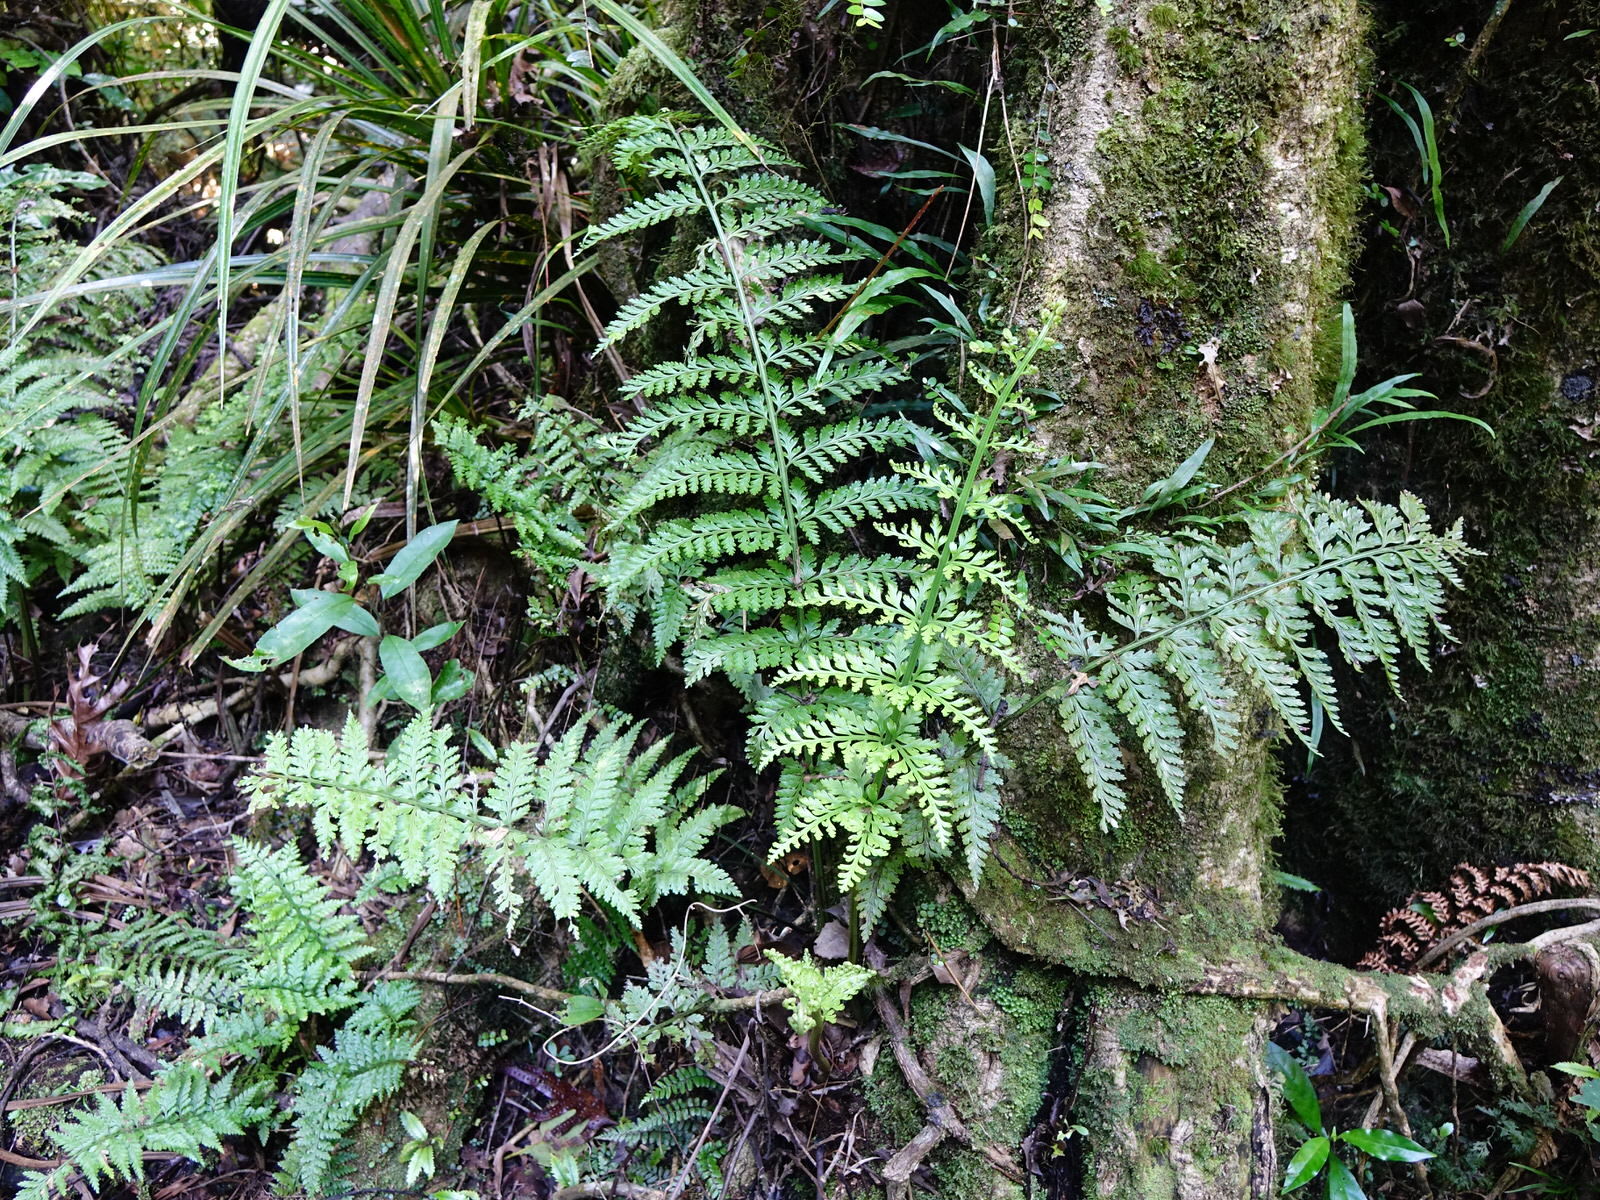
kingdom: Plantae
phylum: Tracheophyta
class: Polypodiopsida
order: Polypodiales
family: Aspleniaceae
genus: Asplenium
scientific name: Asplenium bulbiferum
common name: Mother fern
